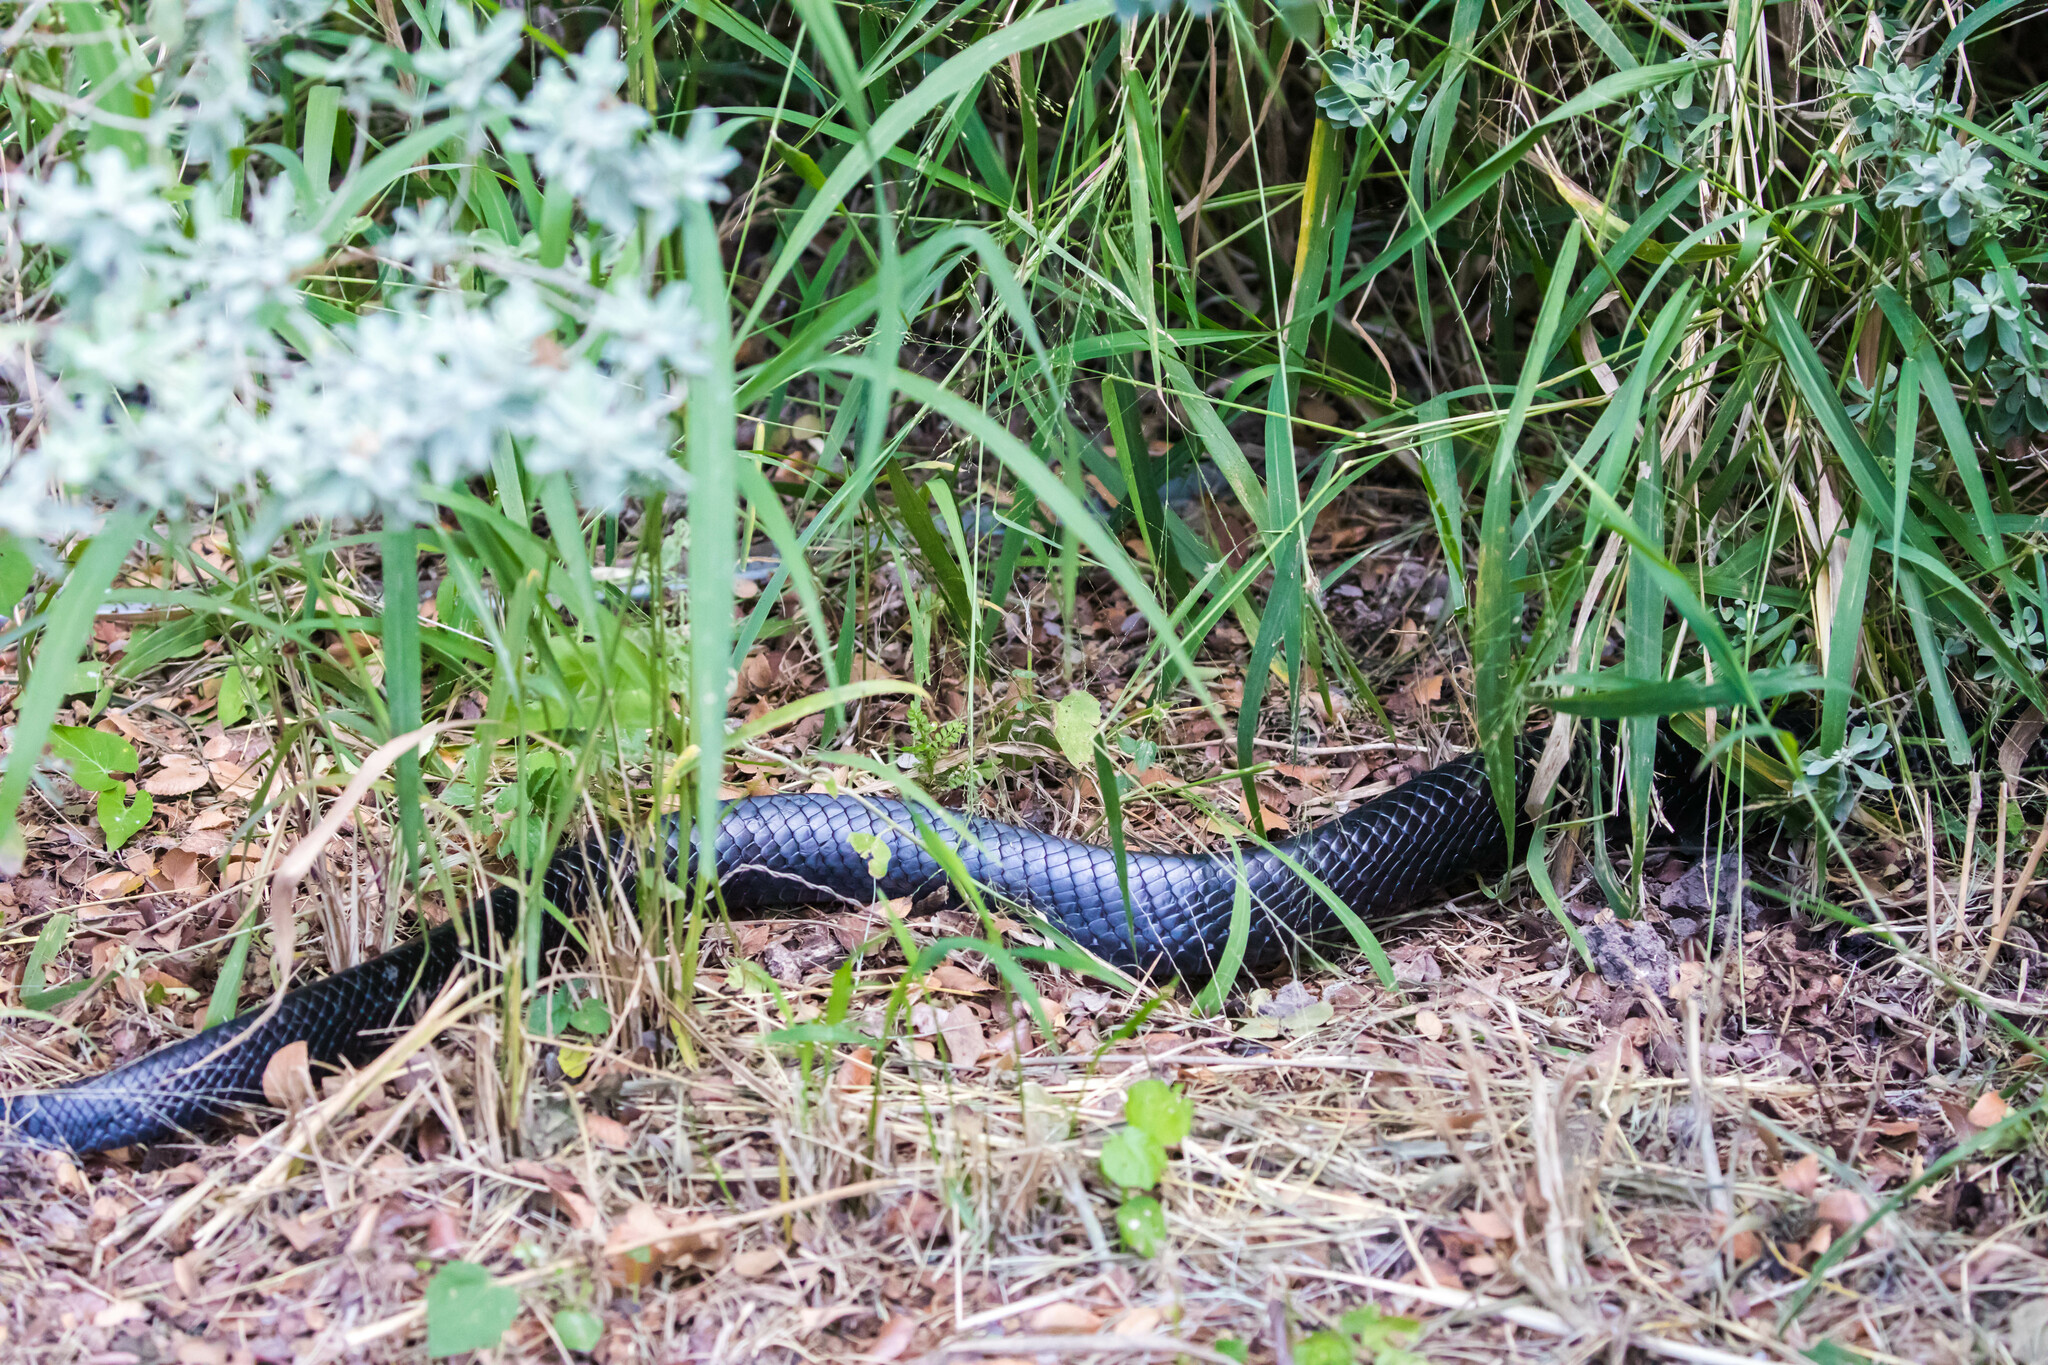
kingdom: Animalia
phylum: Chordata
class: Squamata
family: Colubridae
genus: Drymarchon
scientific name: Drymarchon melanurus
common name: Central american indigo snake
